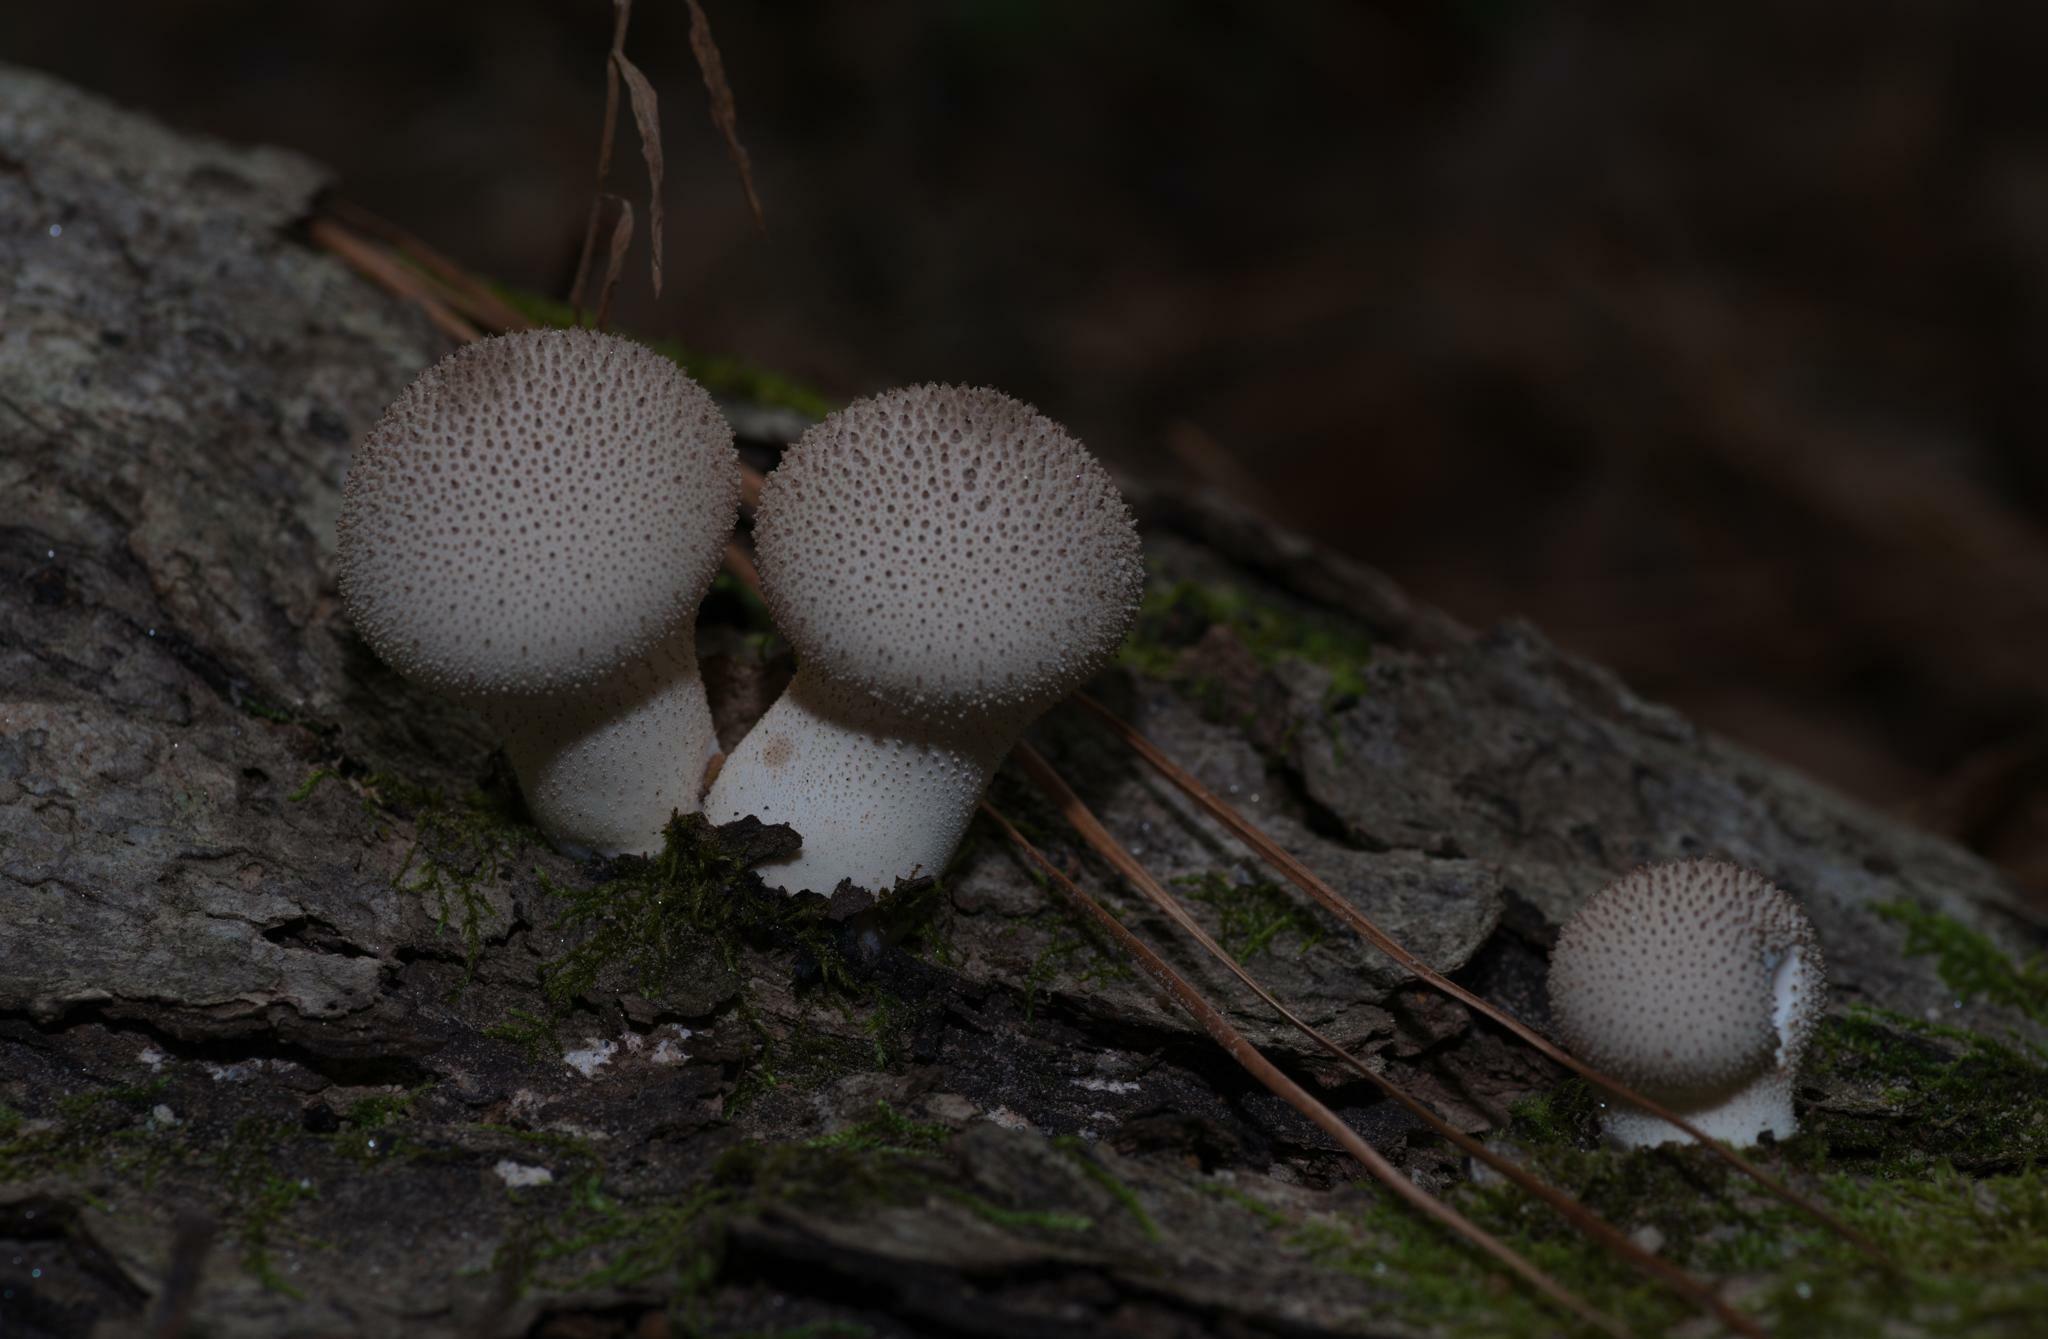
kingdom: Fungi
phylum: Basidiomycota
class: Agaricomycetes
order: Agaricales
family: Lycoperdaceae
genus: Lycoperdon
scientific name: Lycoperdon perlatum
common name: Common puffball
